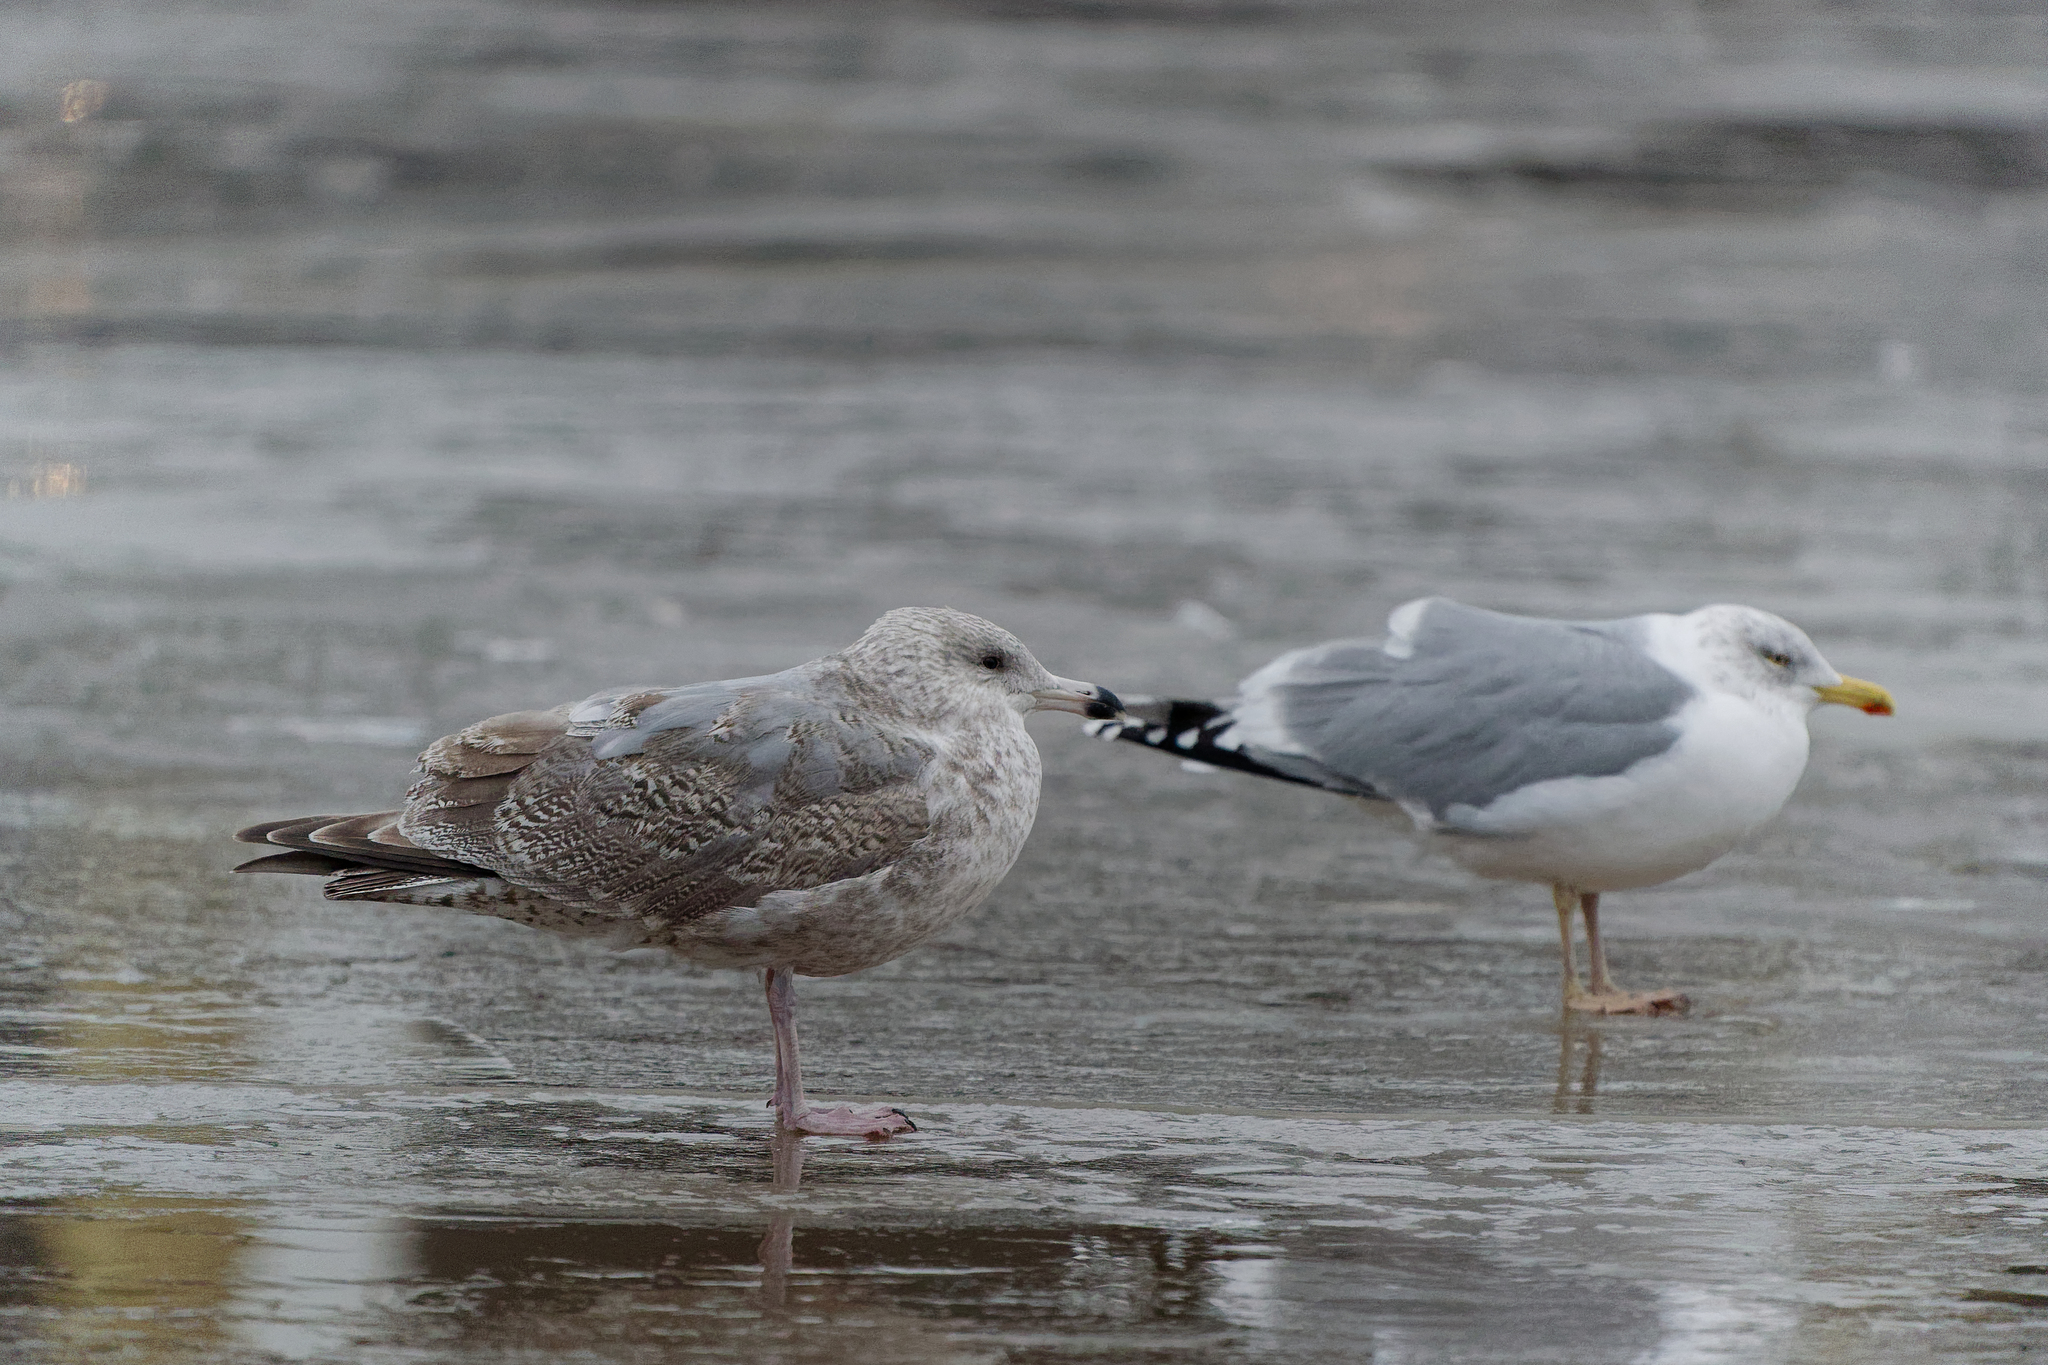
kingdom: Animalia
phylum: Chordata
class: Aves
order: Charadriiformes
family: Laridae
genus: Larus
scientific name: Larus
